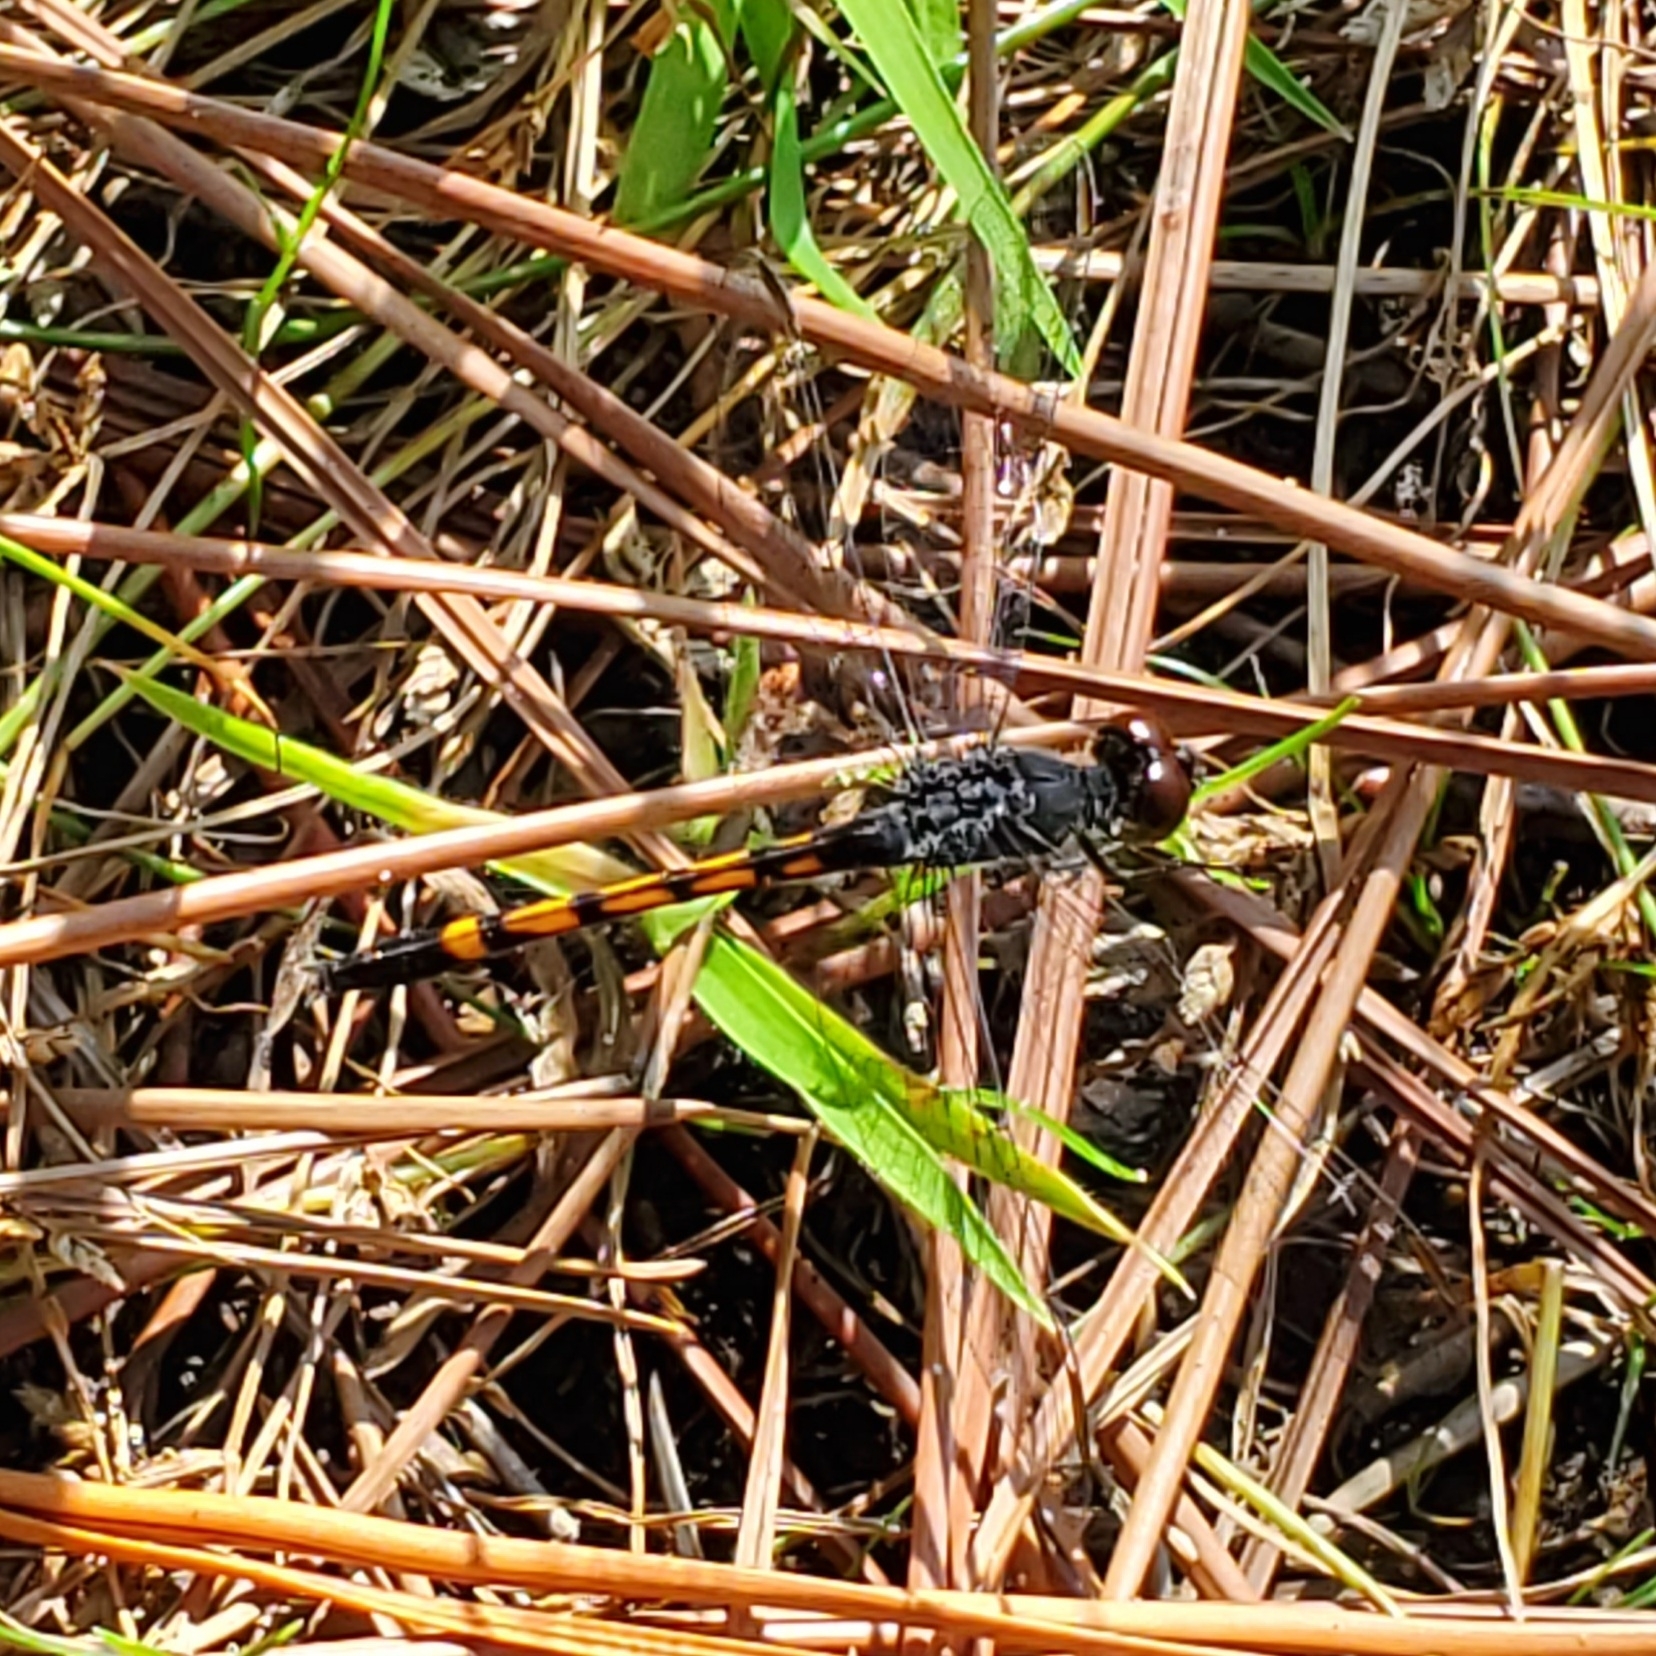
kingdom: Animalia
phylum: Arthropoda
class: Insecta
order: Odonata
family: Libellulidae
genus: Erythrodiplax
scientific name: Erythrodiplax berenice
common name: Seaside dragonlet
